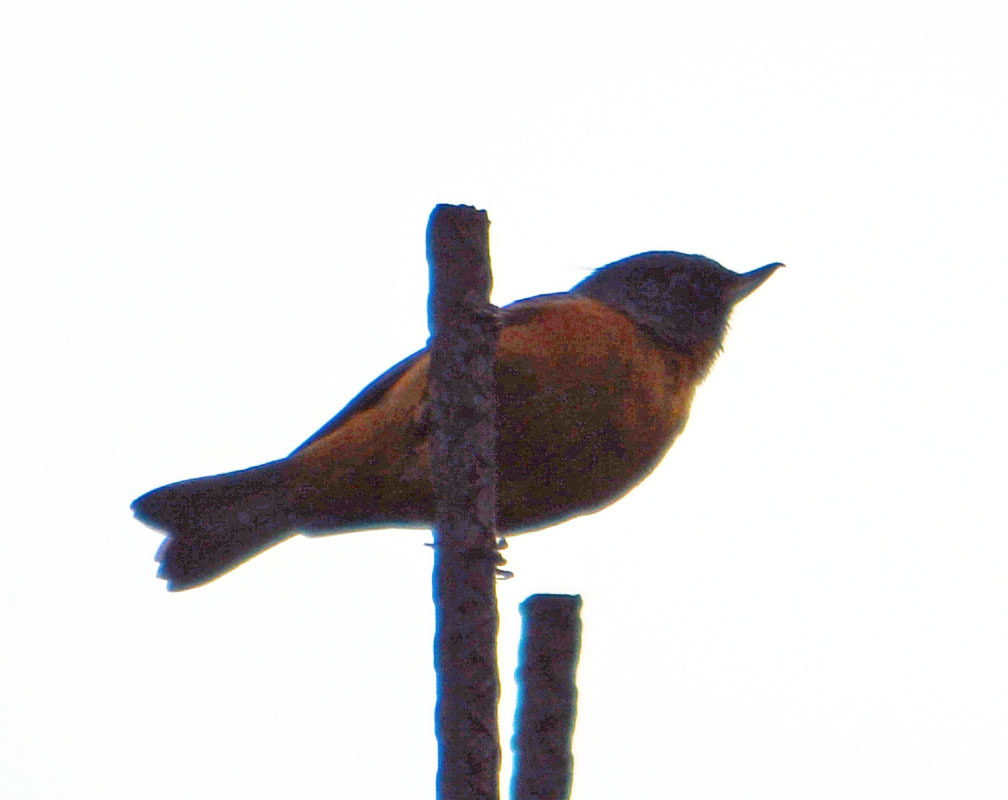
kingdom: Animalia
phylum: Chordata
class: Aves
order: Passeriformes
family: Thraupidae
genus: Diglossa
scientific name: Diglossa baritula
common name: Cinnamon-bellied flowerpiercer
